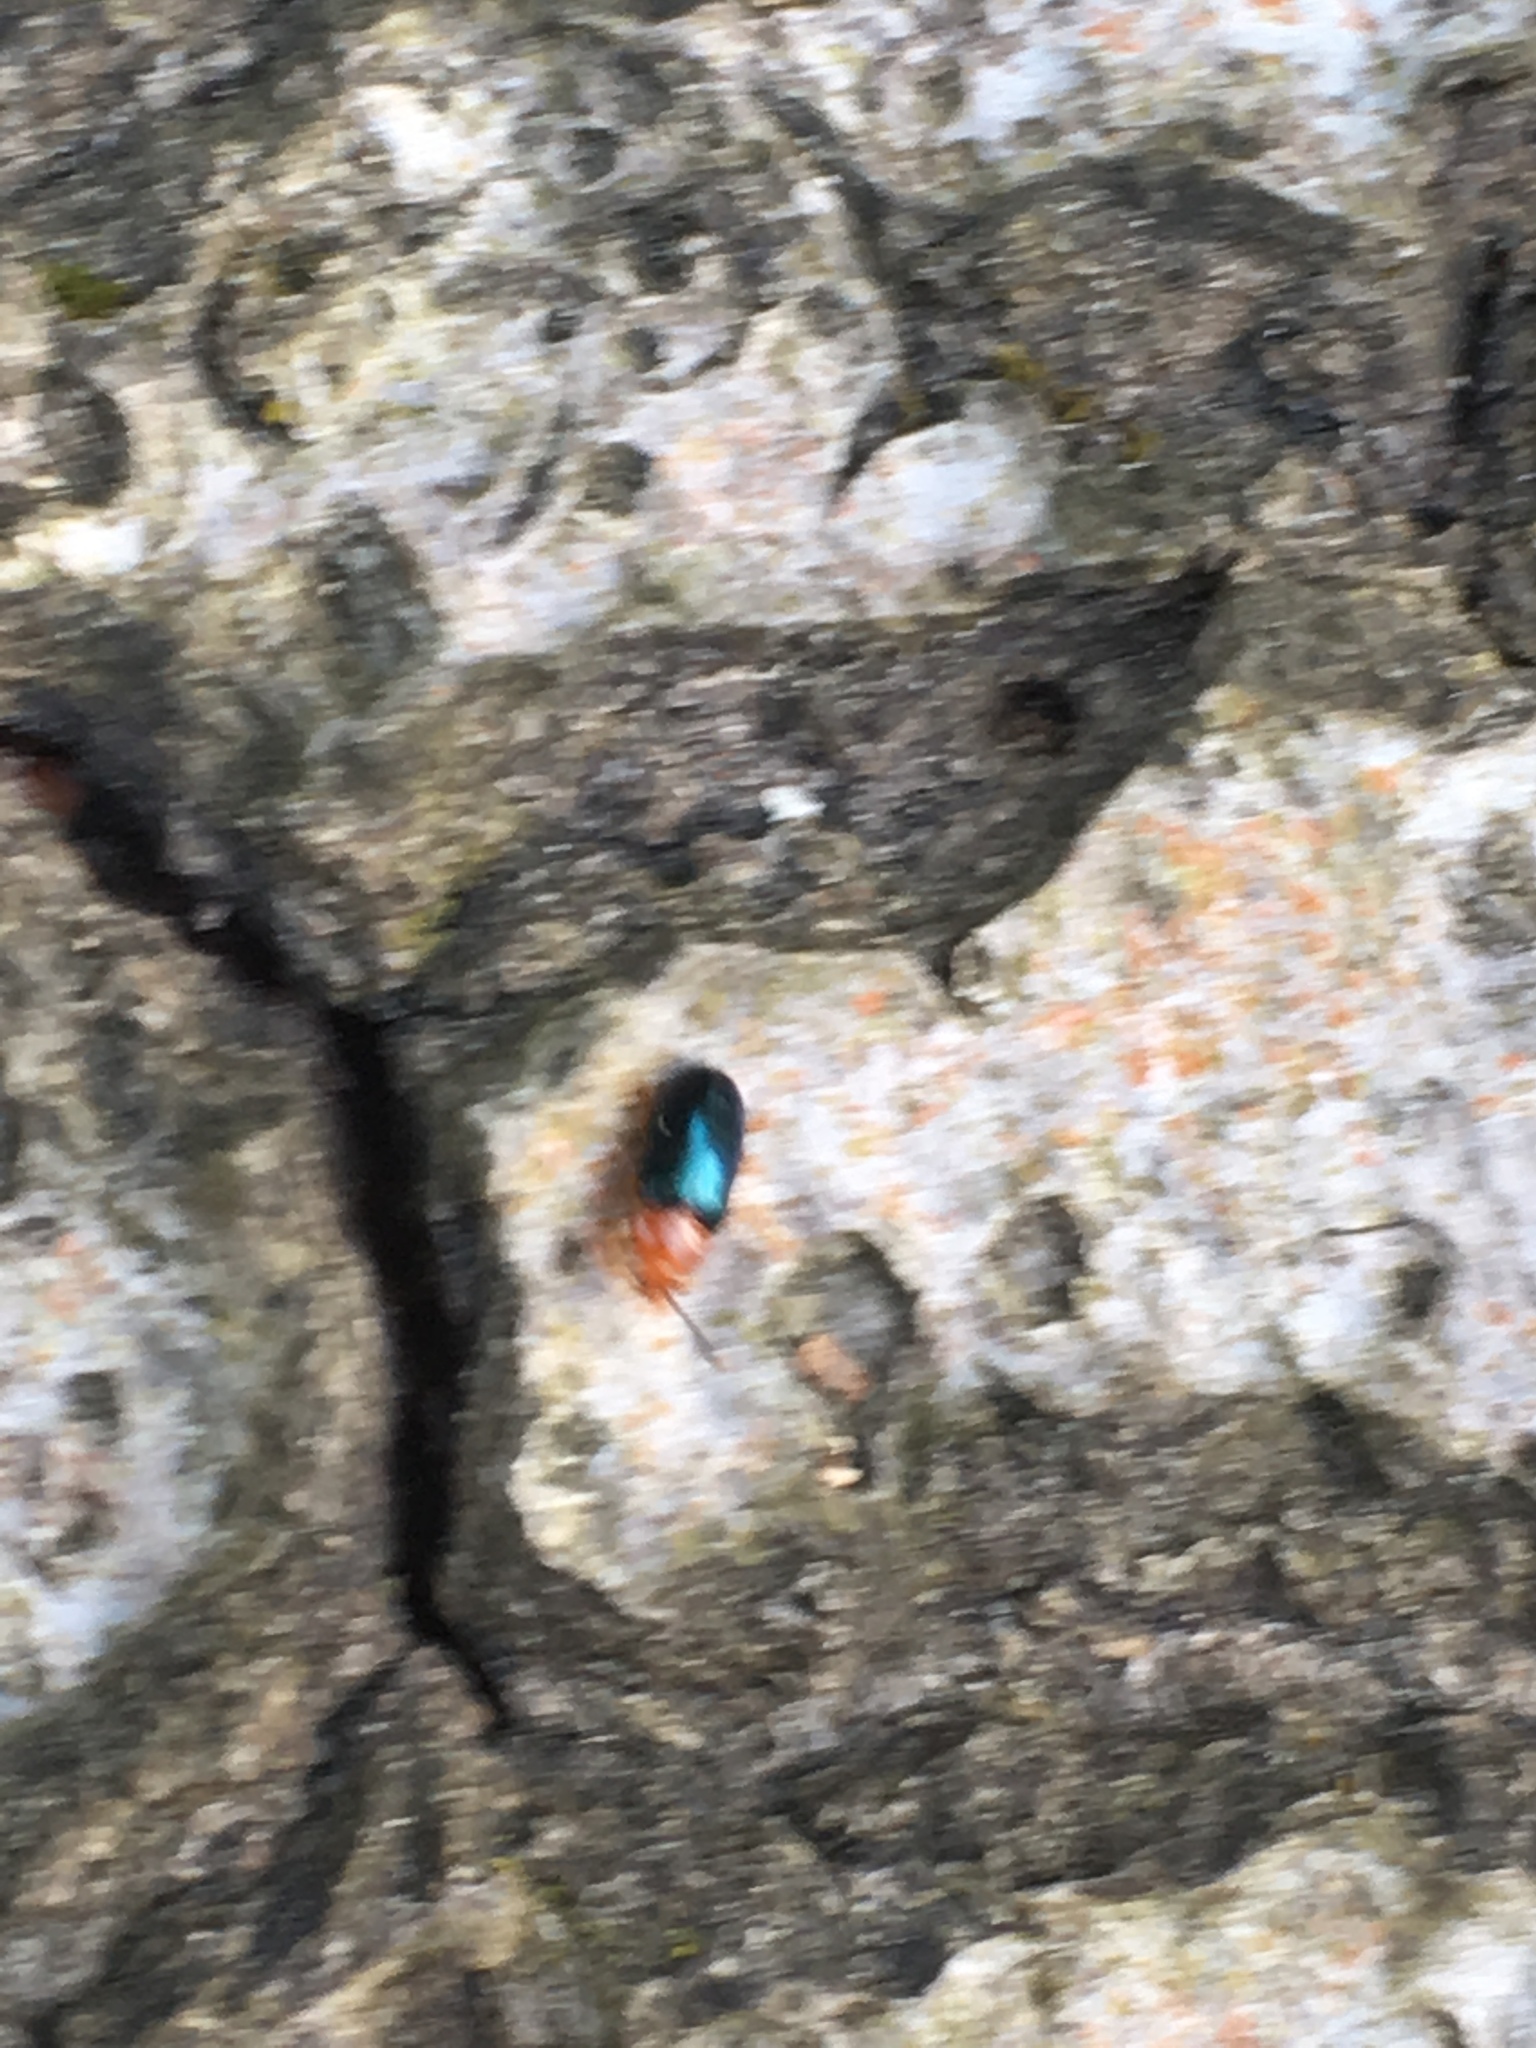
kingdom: Animalia
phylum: Arthropoda
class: Insecta
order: Coleoptera
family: Erotylidae
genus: Triplax
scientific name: Triplax aenea
